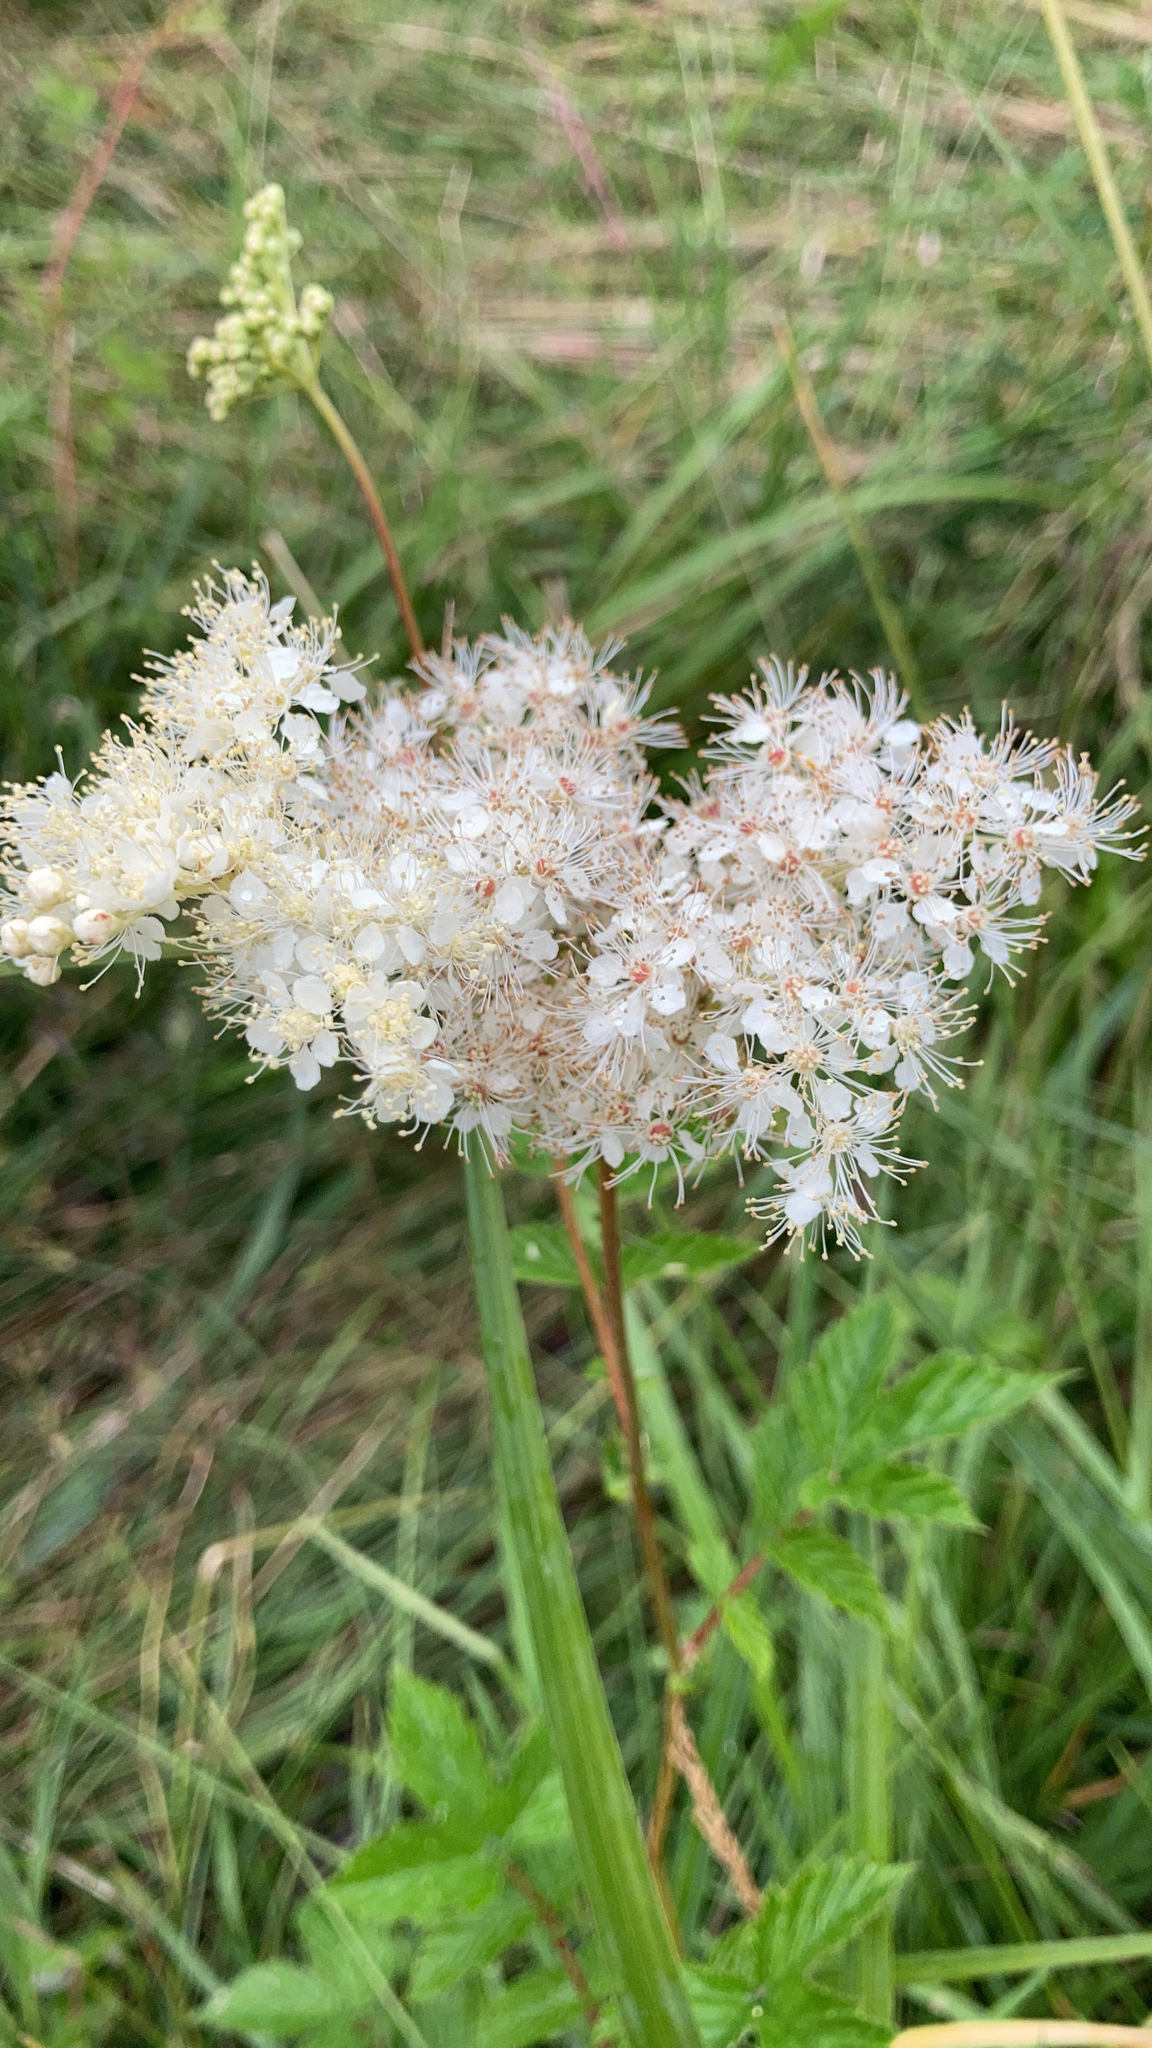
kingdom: Plantae
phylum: Tracheophyta
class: Magnoliopsida
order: Rosales
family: Rosaceae
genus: Filipendula
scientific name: Filipendula ulmaria
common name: Meadowsweet
